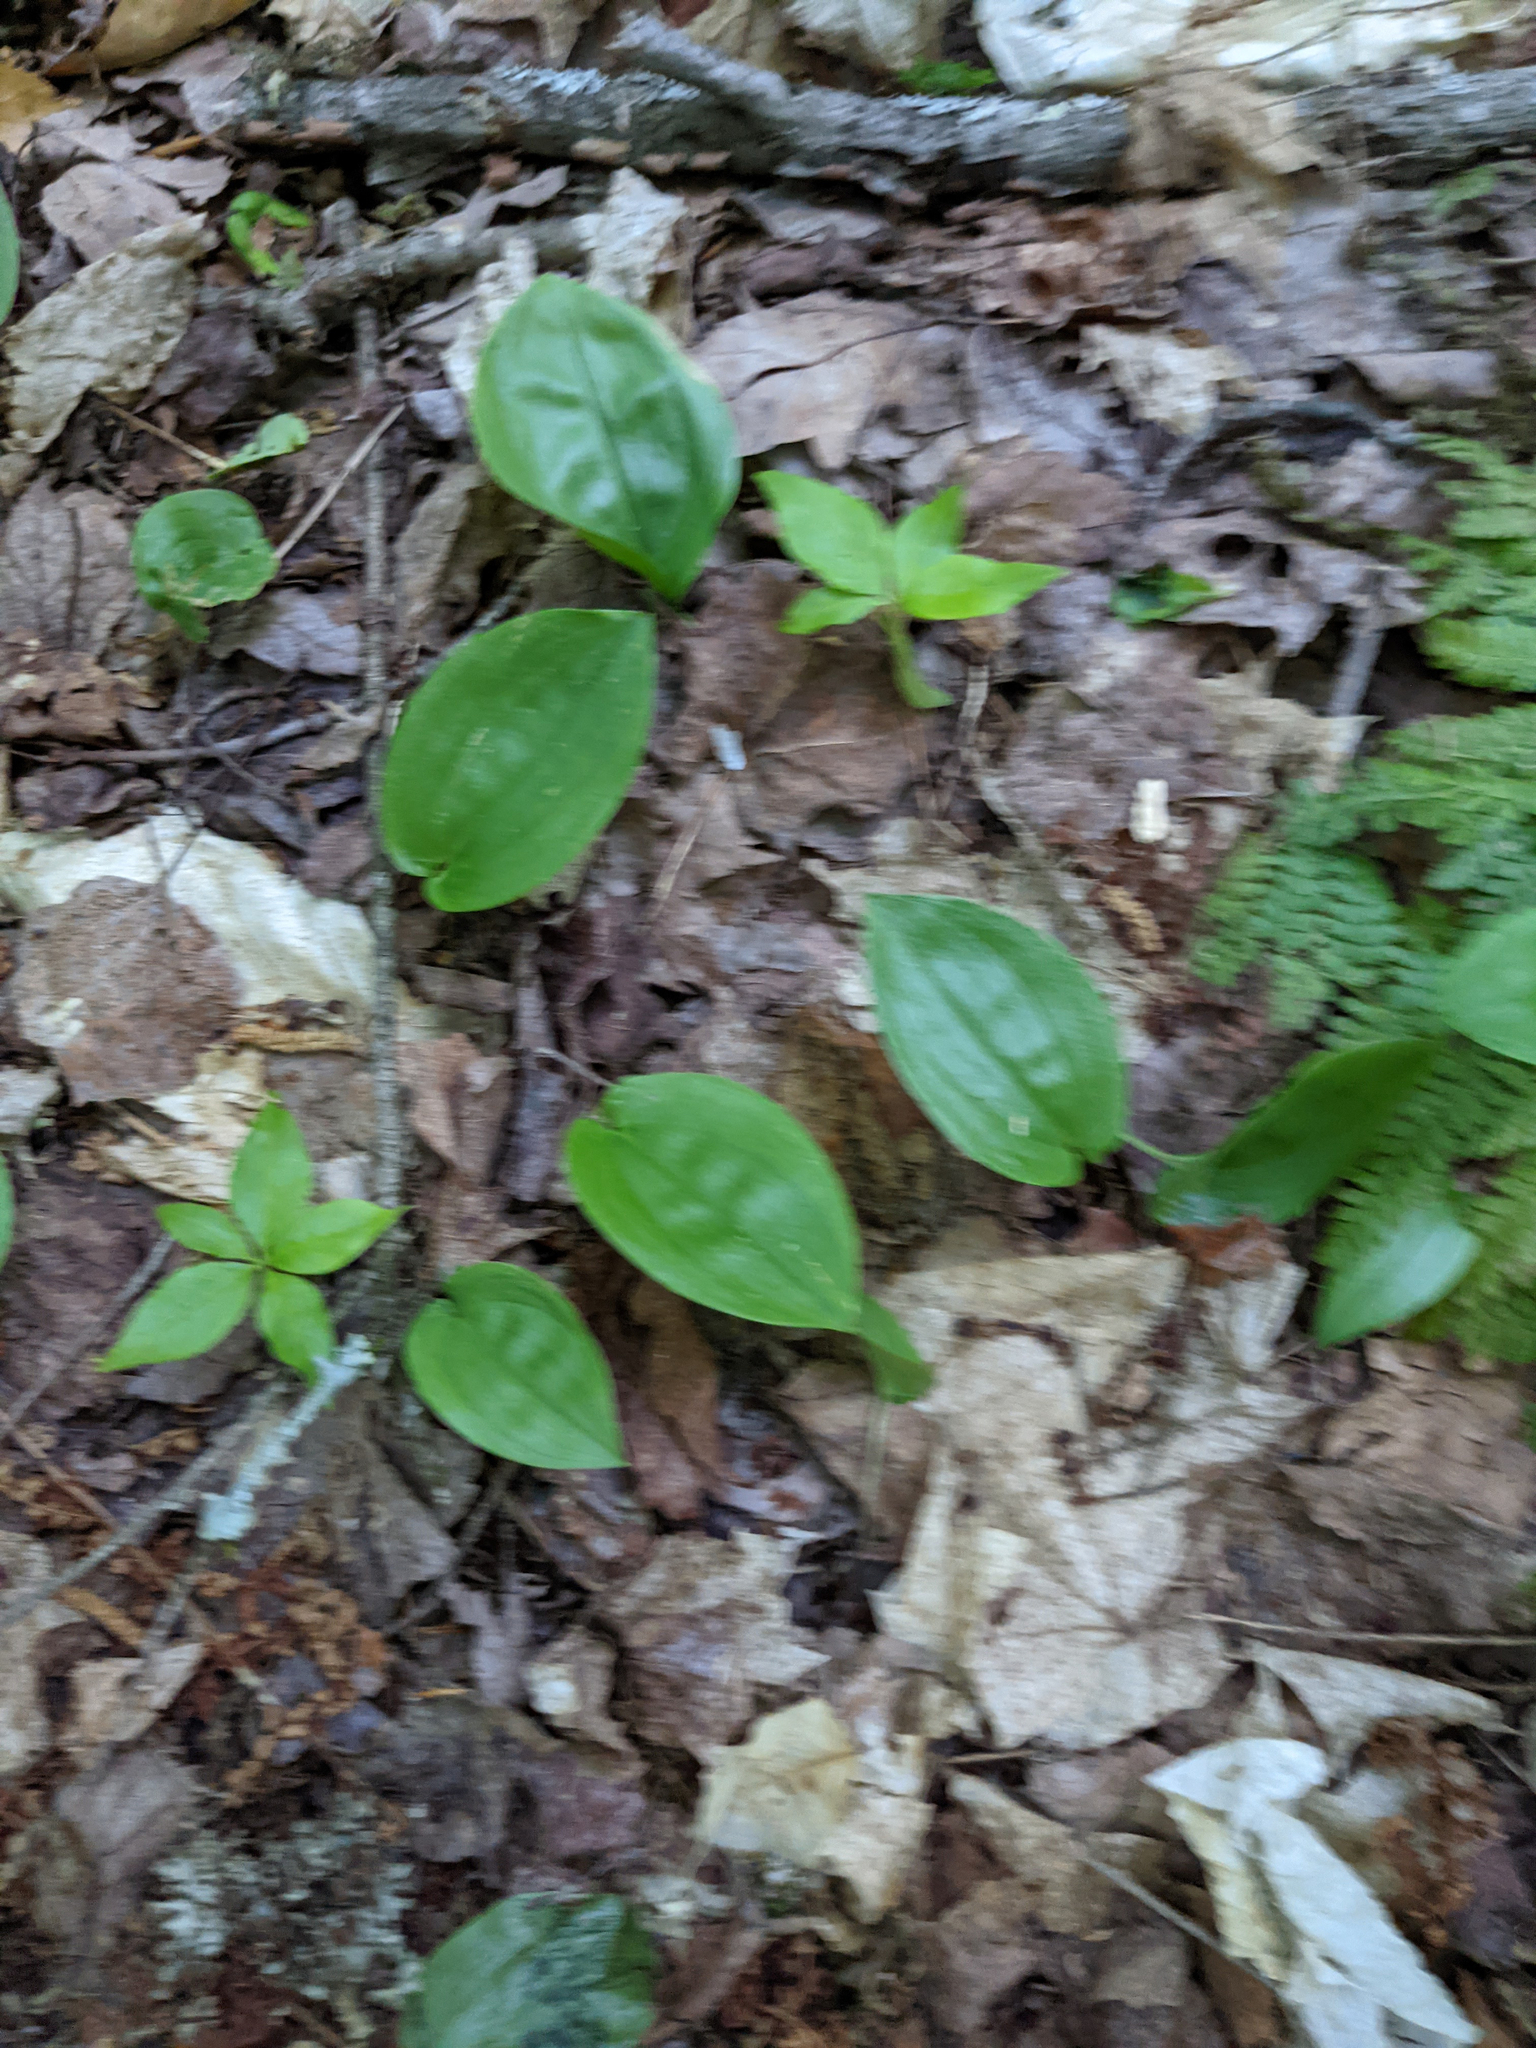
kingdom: Plantae
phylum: Tracheophyta
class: Liliopsida
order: Asparagales
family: Asparagaceae
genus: Maianthemum
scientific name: Maianthemum canadense
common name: False lily-of-the-valley
